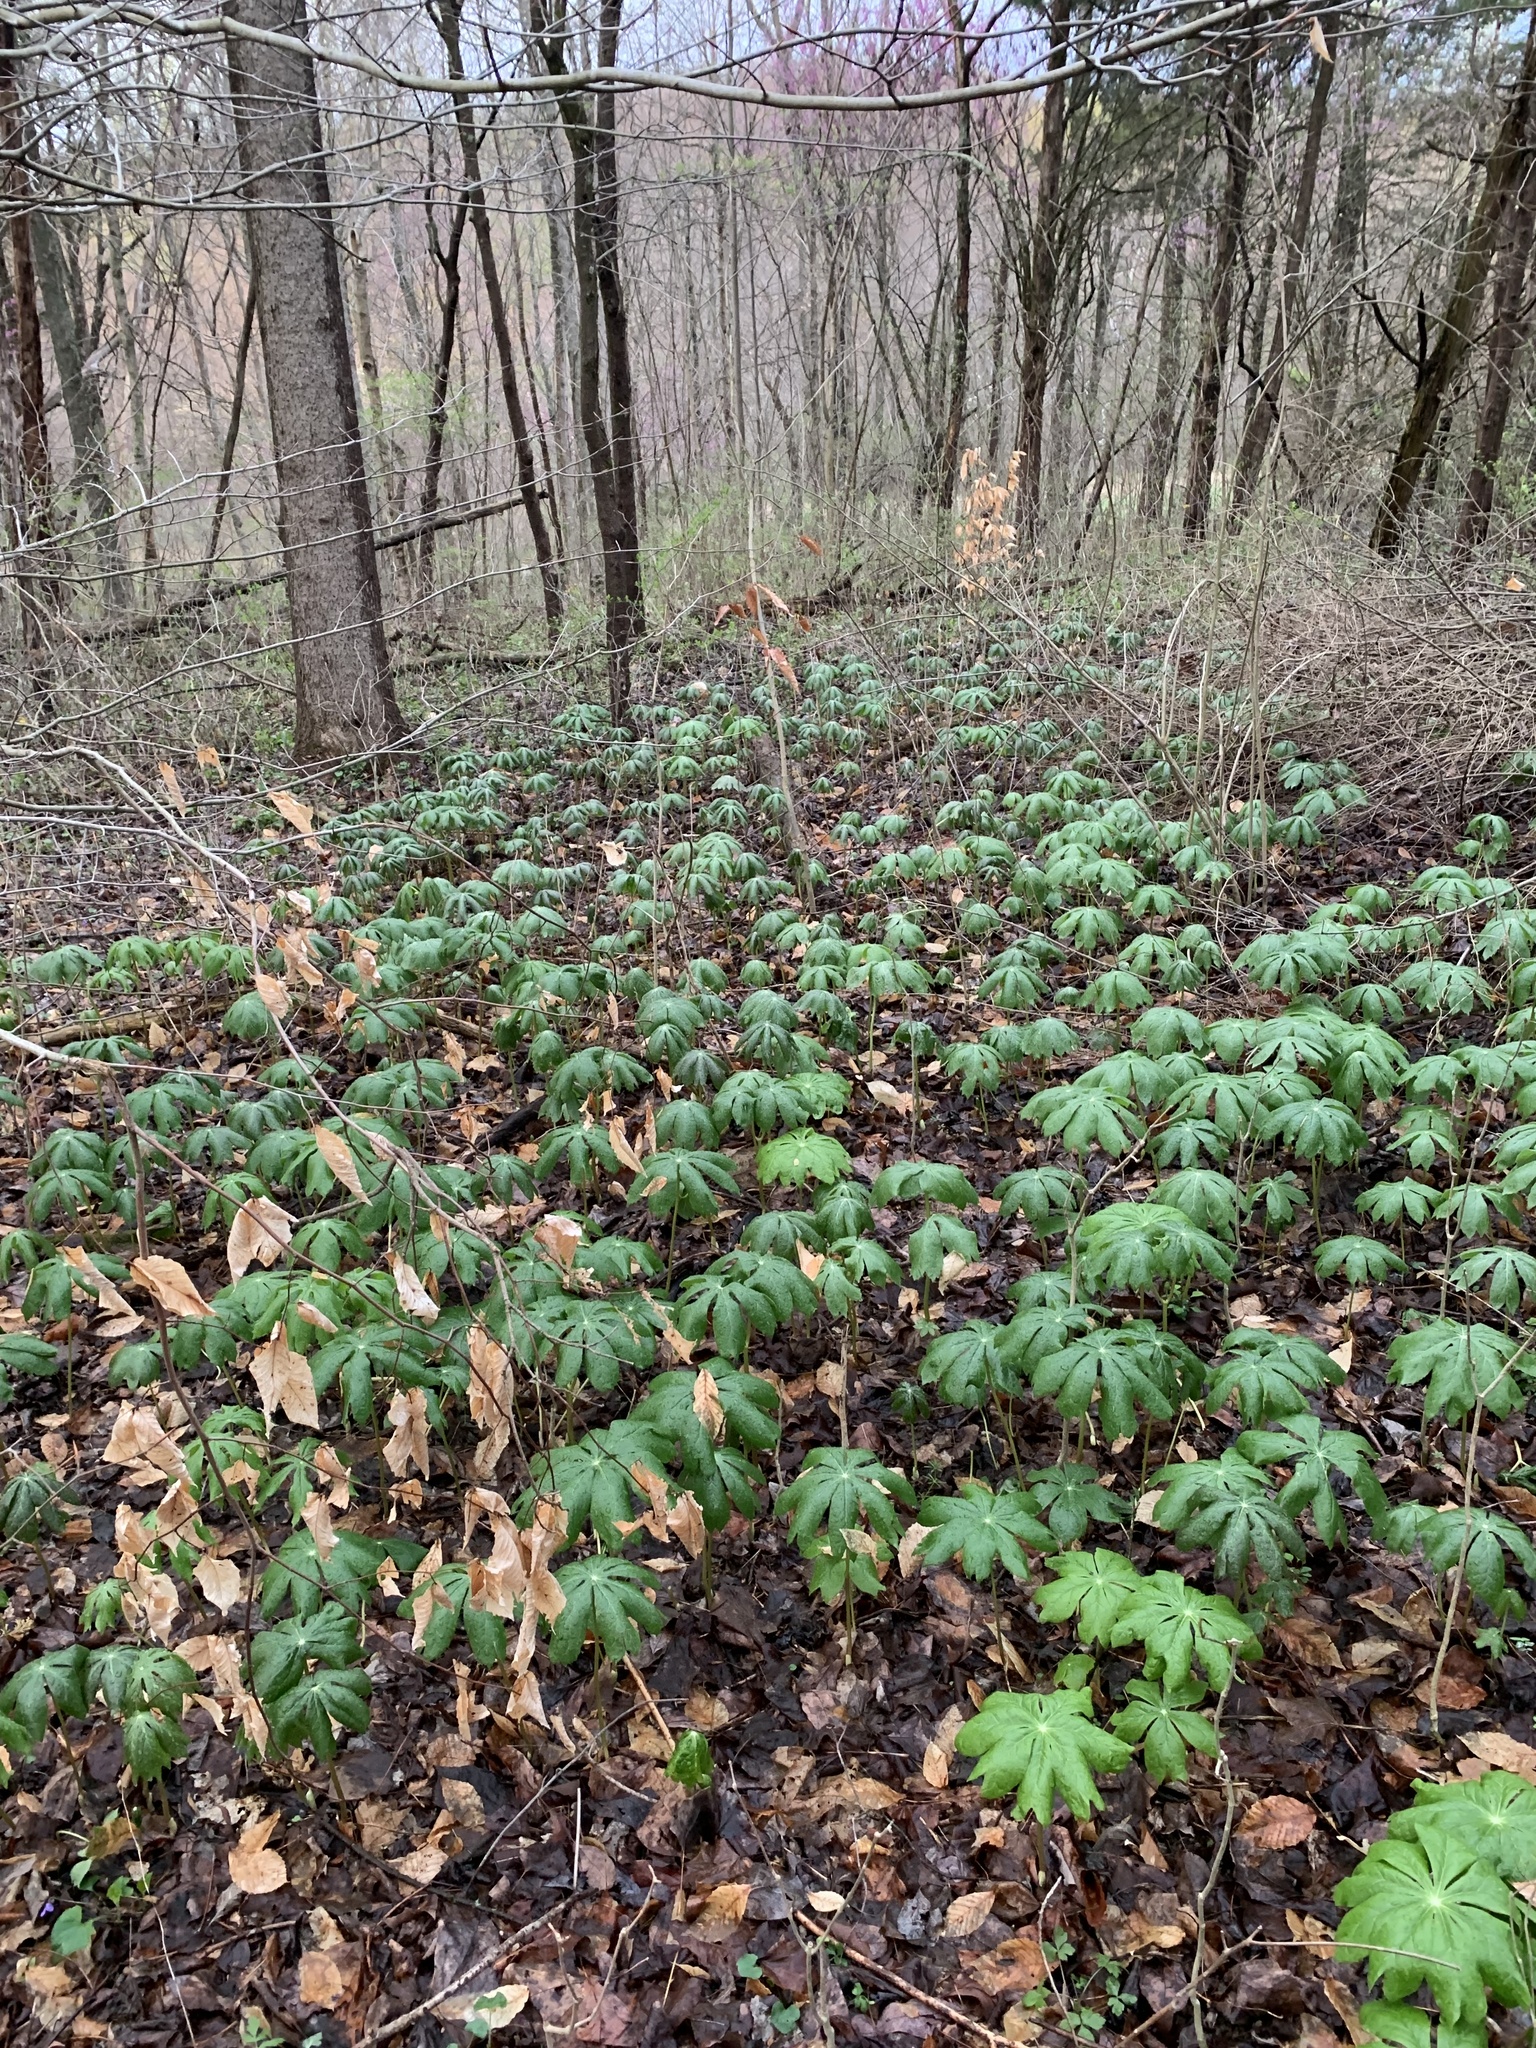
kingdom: Plantae
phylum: Tracheophyta
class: Magnoliopsida
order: Ranunculales
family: Berberidaceae
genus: Podophyllum
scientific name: Podophyllum peltatum
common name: Wild mandrake
